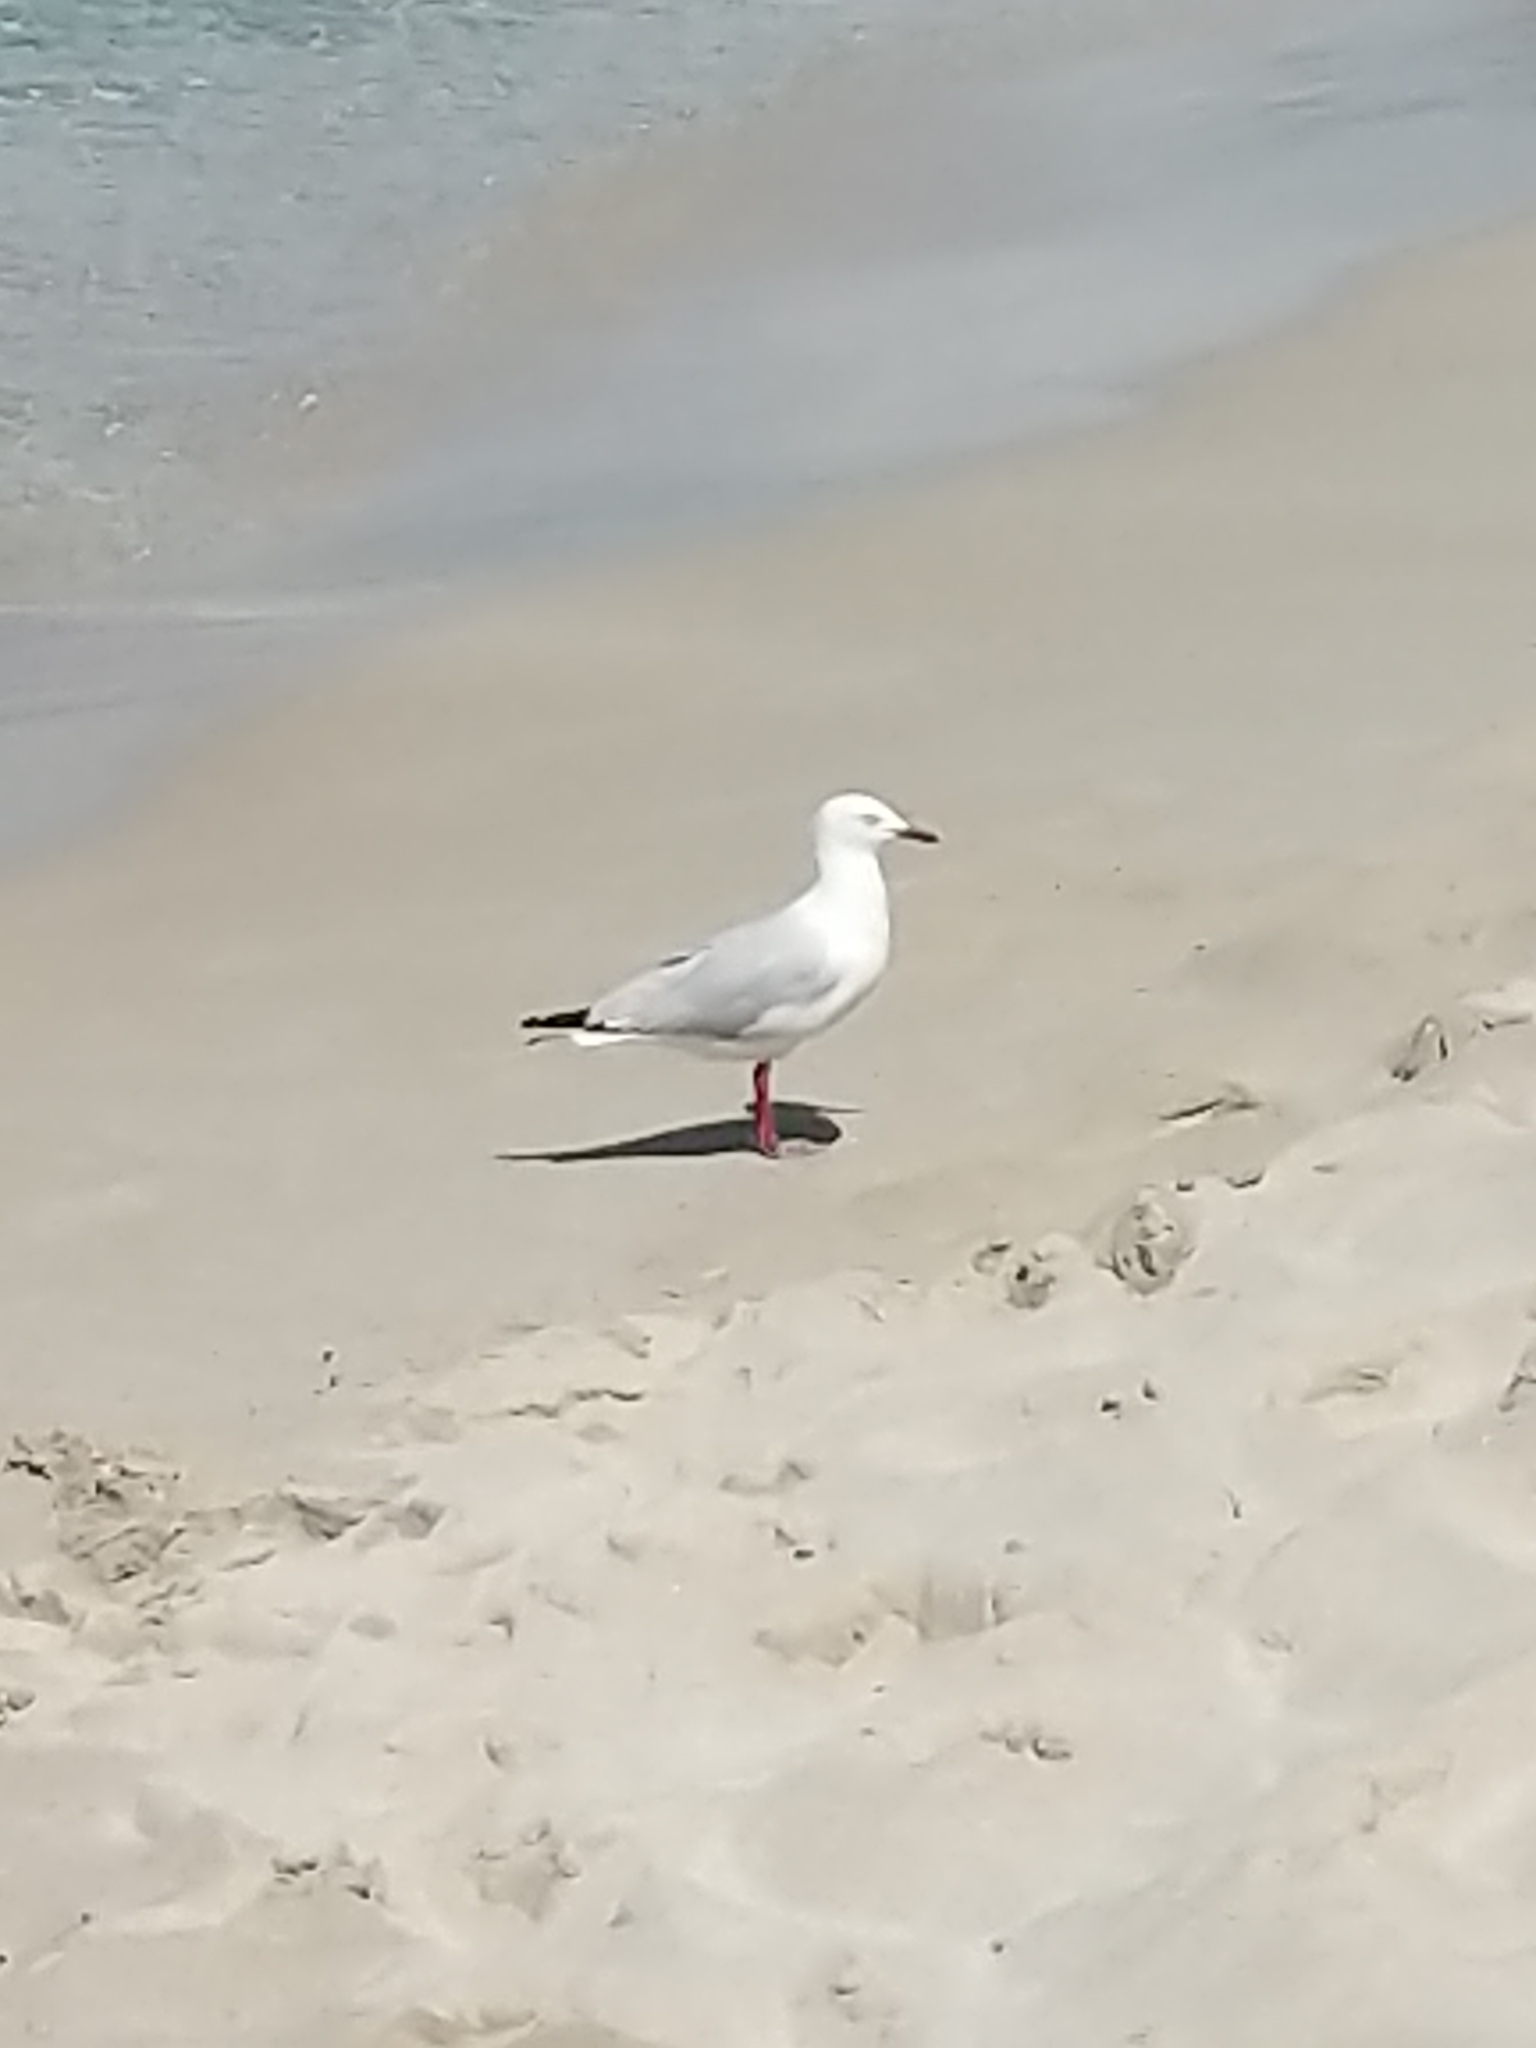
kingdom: Animalia
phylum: Chordata
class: Aves
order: Charadriiformes
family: Laridae
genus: Chroicocephalus
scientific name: Chroicocephalus novaehollandiae
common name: Silver gull
